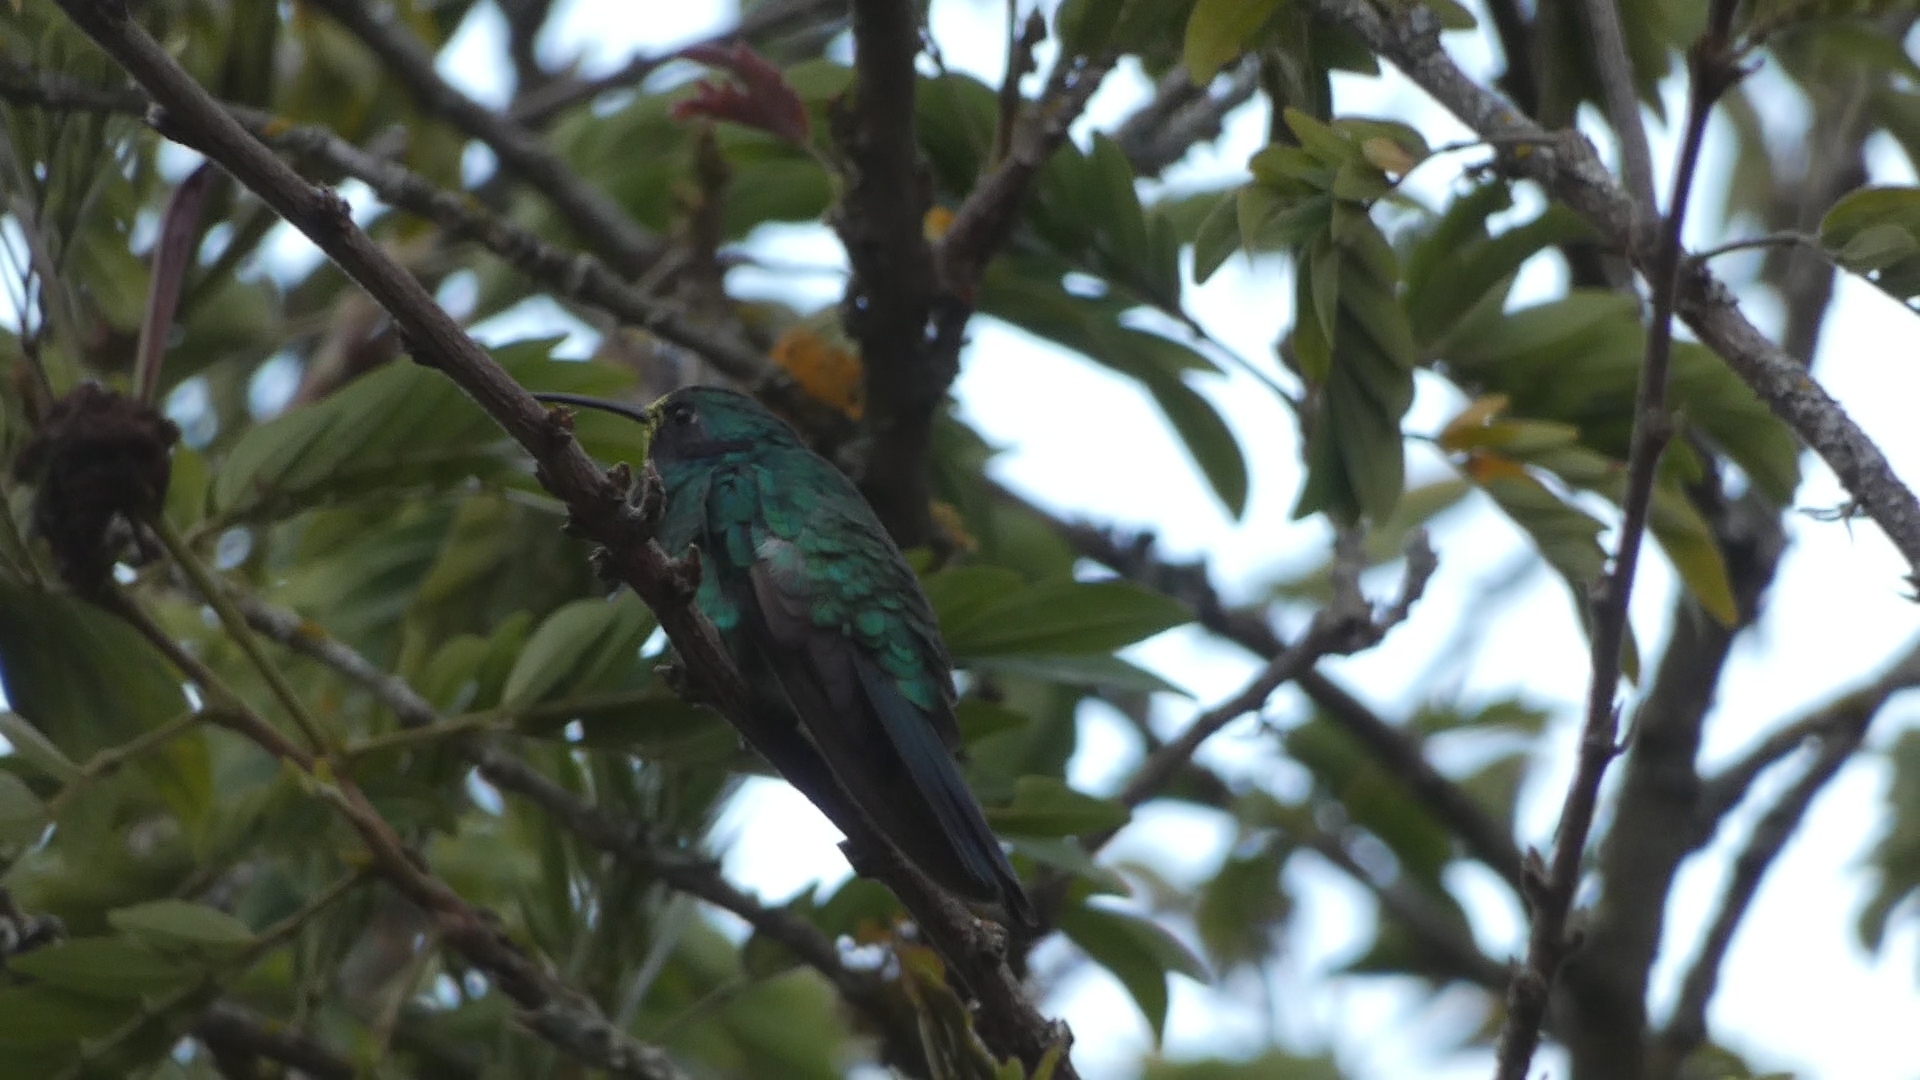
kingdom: Animalia
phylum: Chordata
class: Aves
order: Apodiformes
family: Trochilidae
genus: Colibri
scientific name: Colibri coruscans
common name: Sparkling violetear
